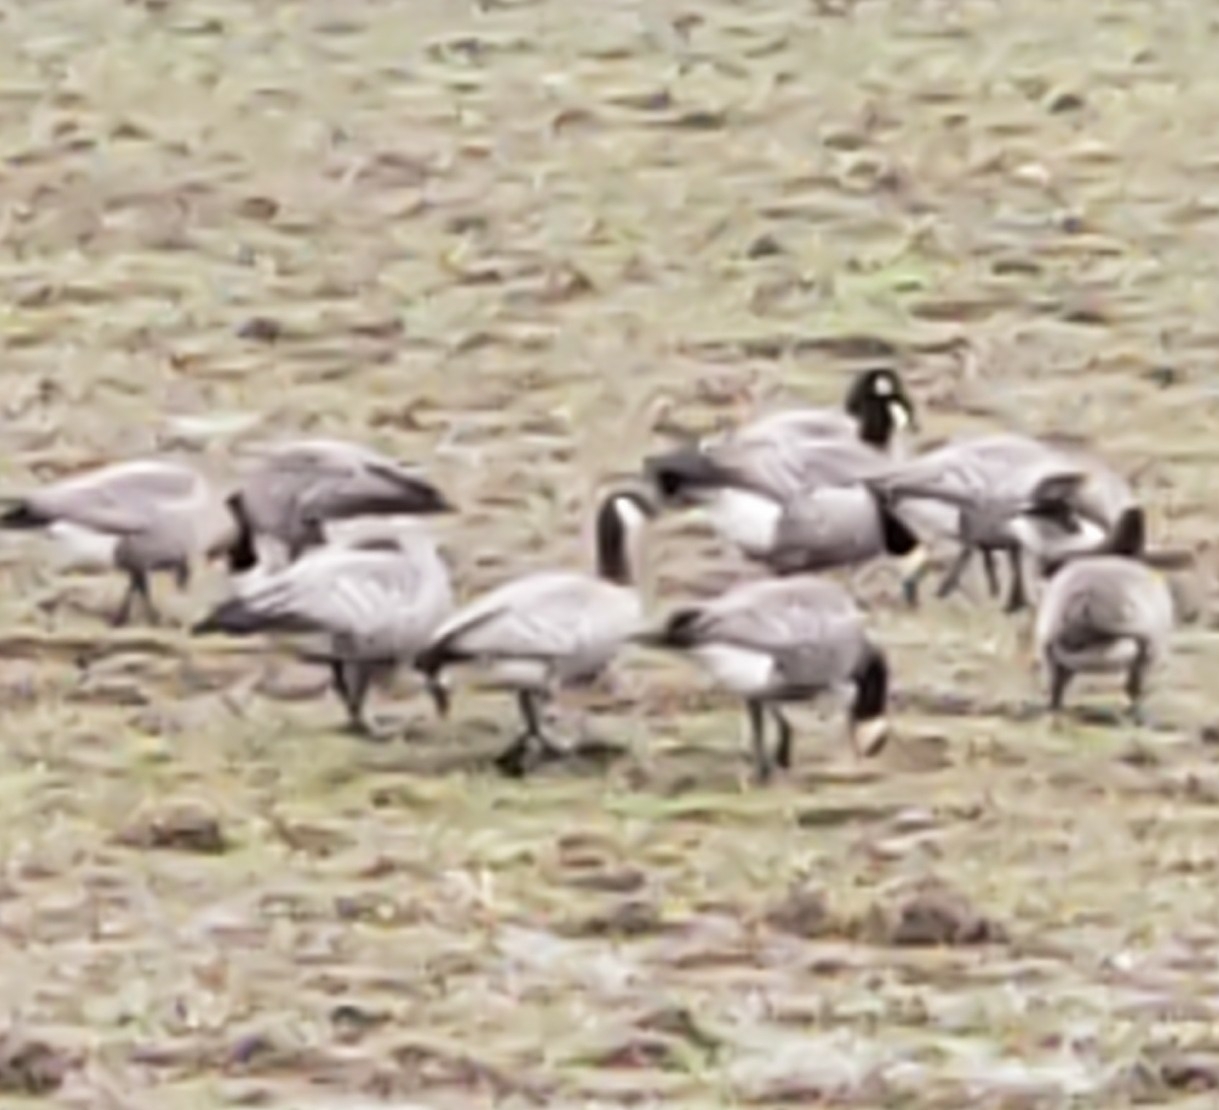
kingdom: Animalia
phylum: Chordata
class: Aves
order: Anseriformes
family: Anatidae
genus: Branta
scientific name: Branta canadensis
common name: Canada goose
